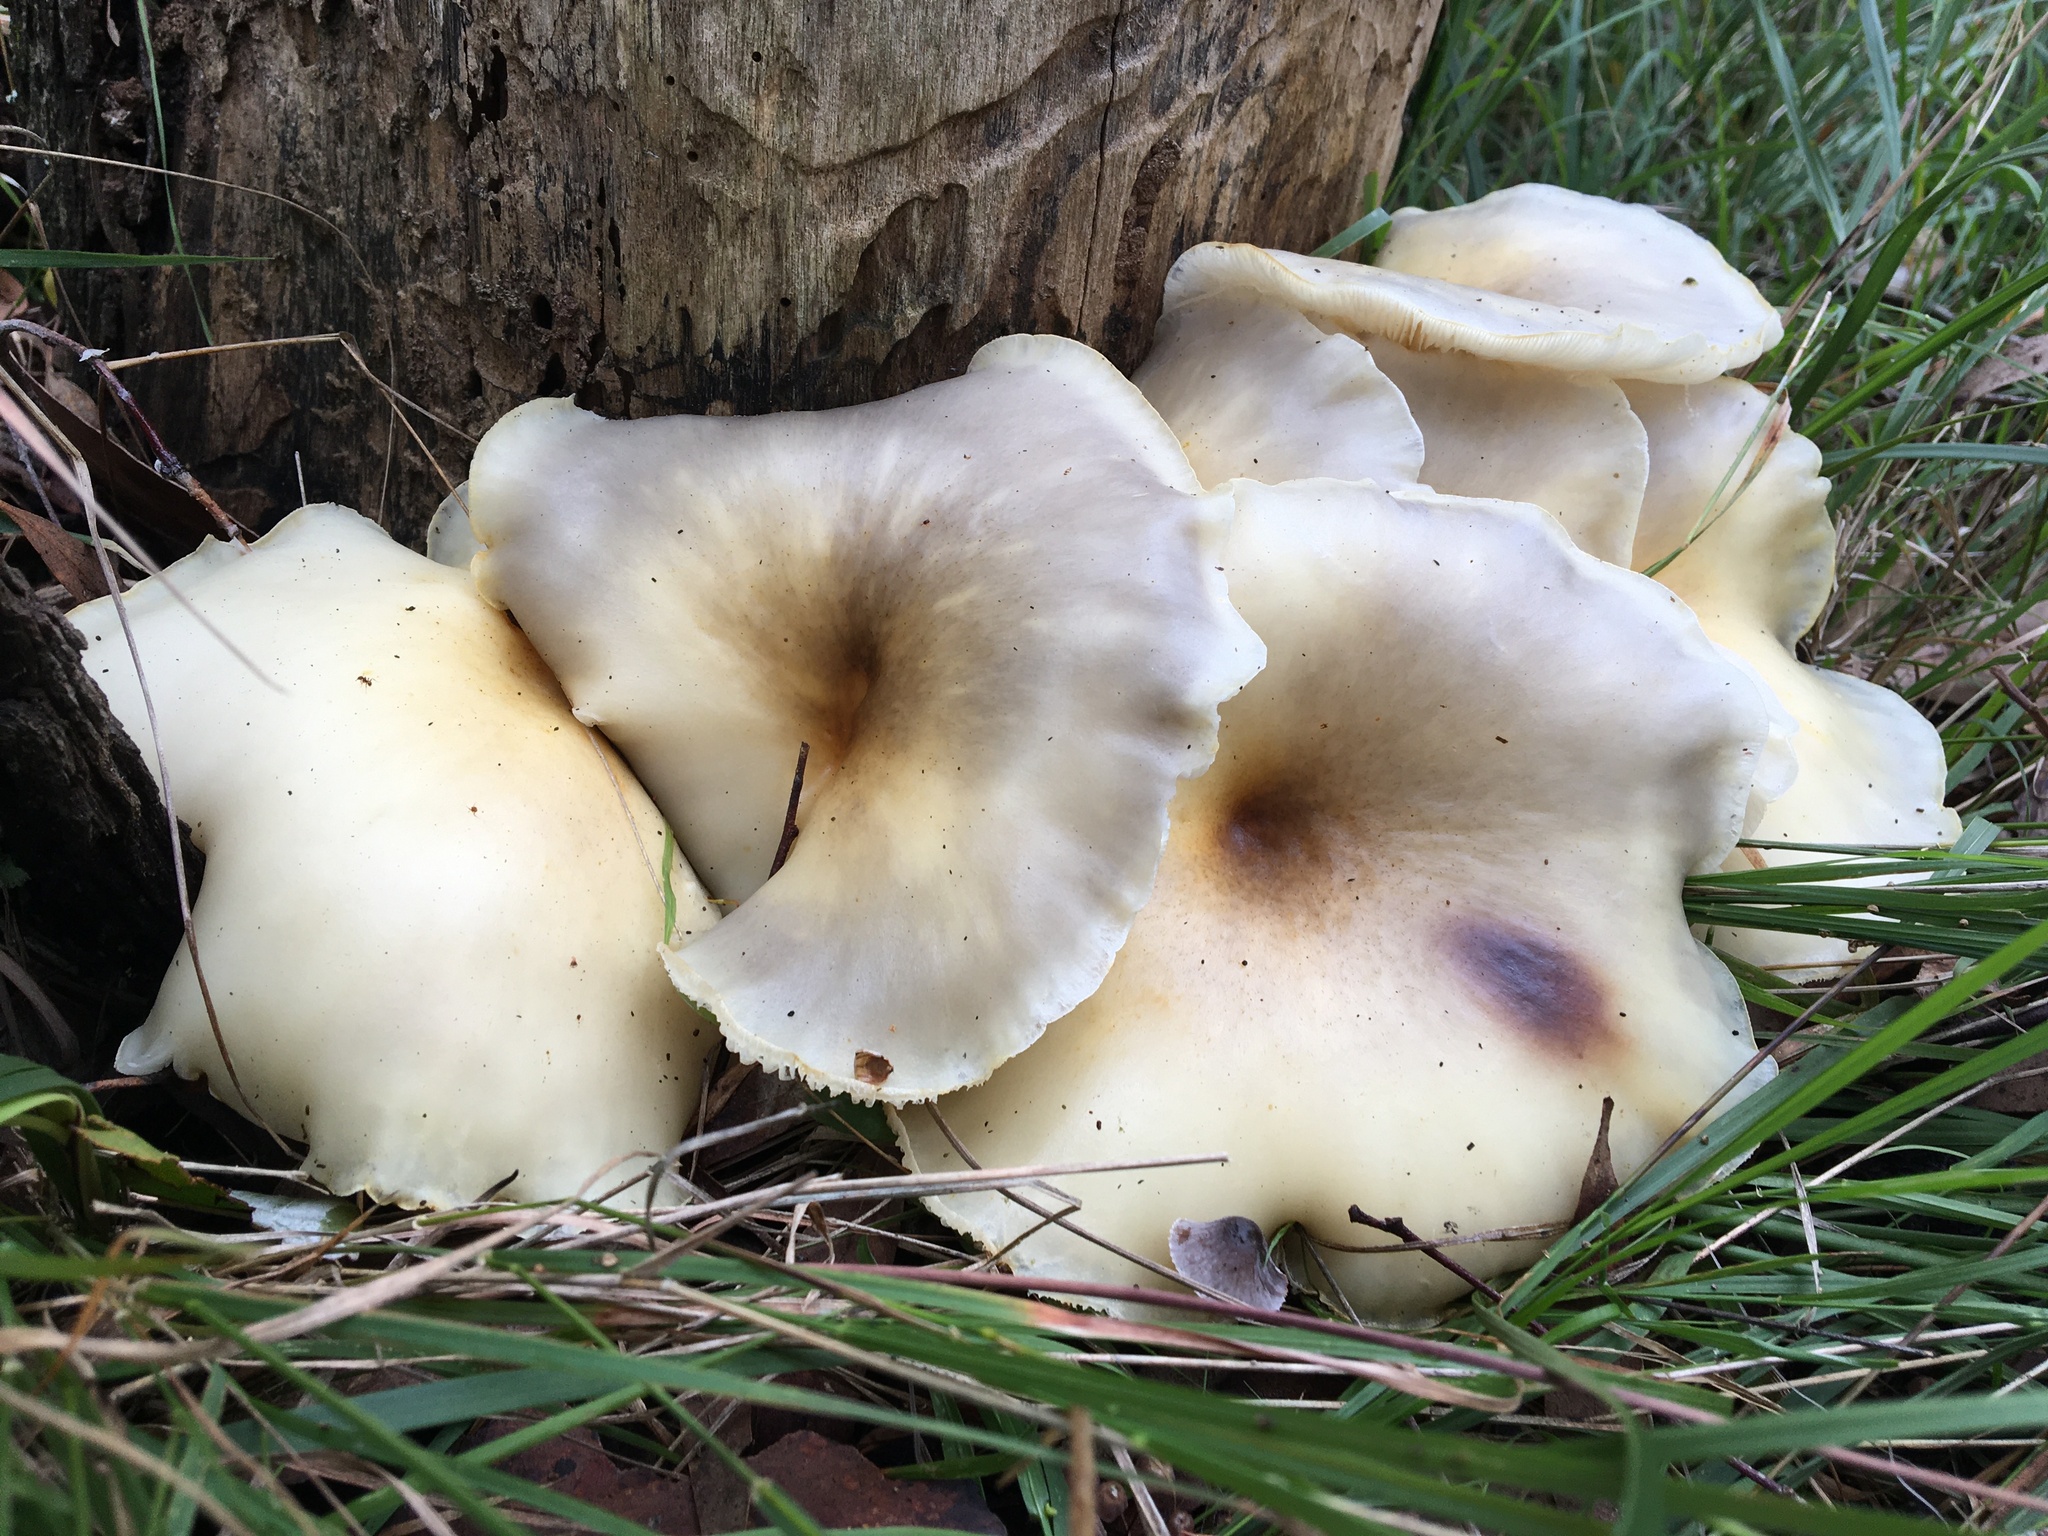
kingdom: Fungi
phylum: Basidiomycota
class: Agaricomycetes
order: Agaricales
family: Omphalotaceae
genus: Omphalotus
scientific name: Omphalotus nidiformis
